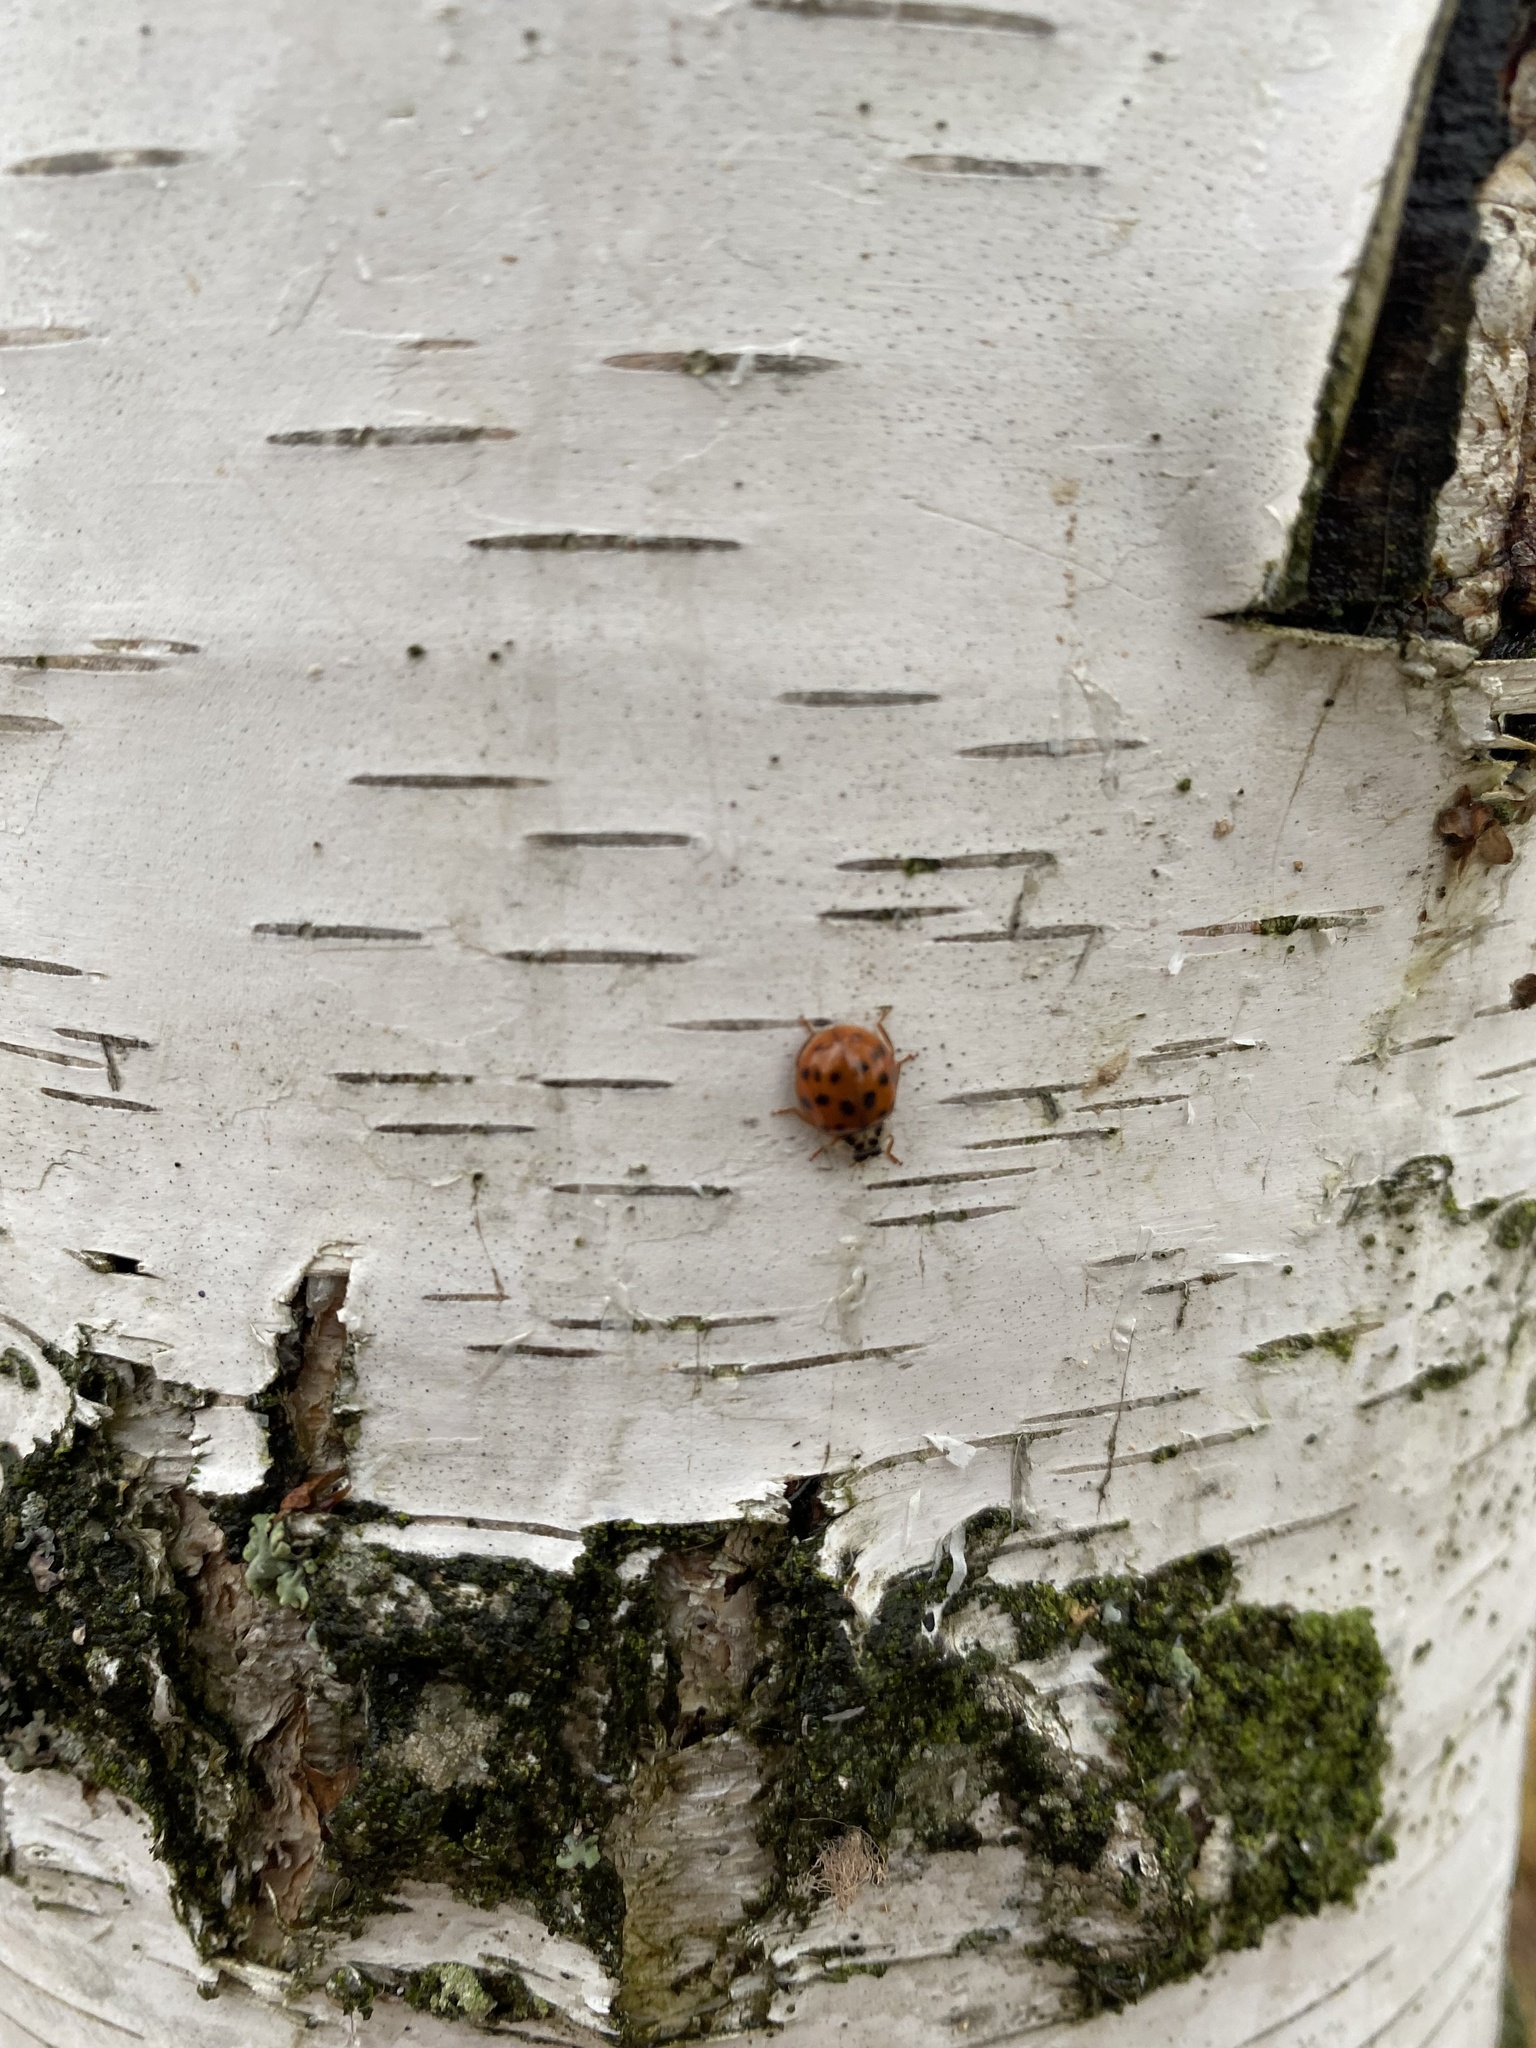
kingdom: Animalia
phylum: Arthropoda
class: Insecta
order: Coleoptera
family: Coccinellidae
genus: Harmonia
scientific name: Harmonia axyridis
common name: Harlequin ladybird
